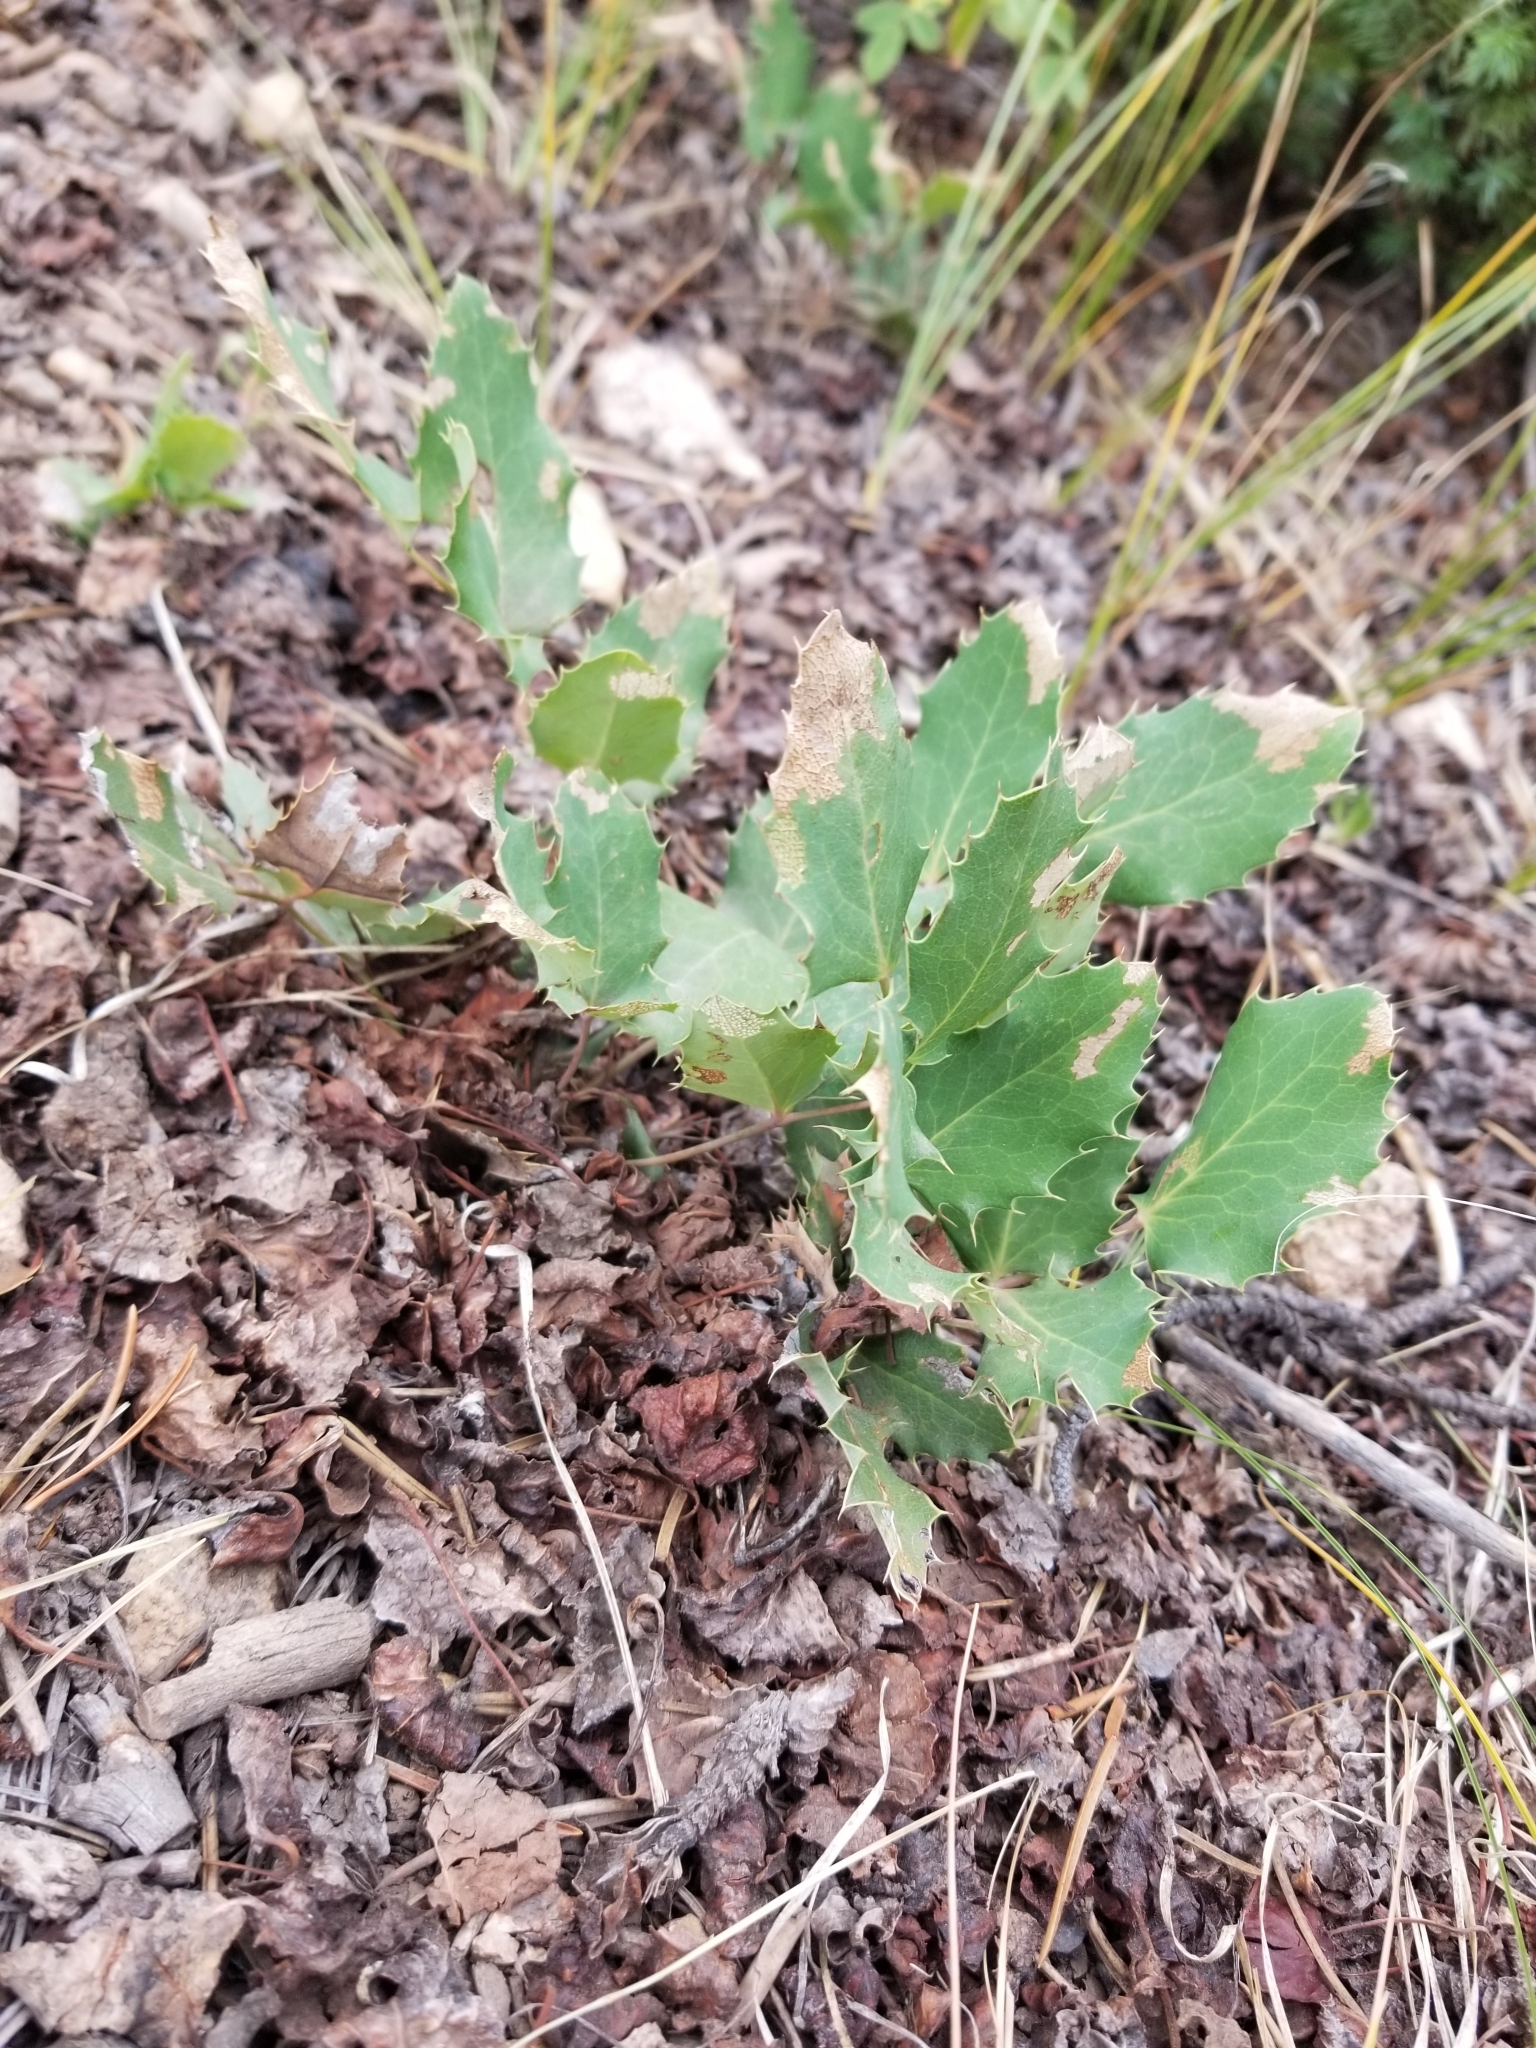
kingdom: Plantae
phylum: Tracheophyta
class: Magnoliopsida
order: Ranunculales
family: Berberidaceae
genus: Mahonia
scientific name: Mahonia repens
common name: Creeping oregon-grape
